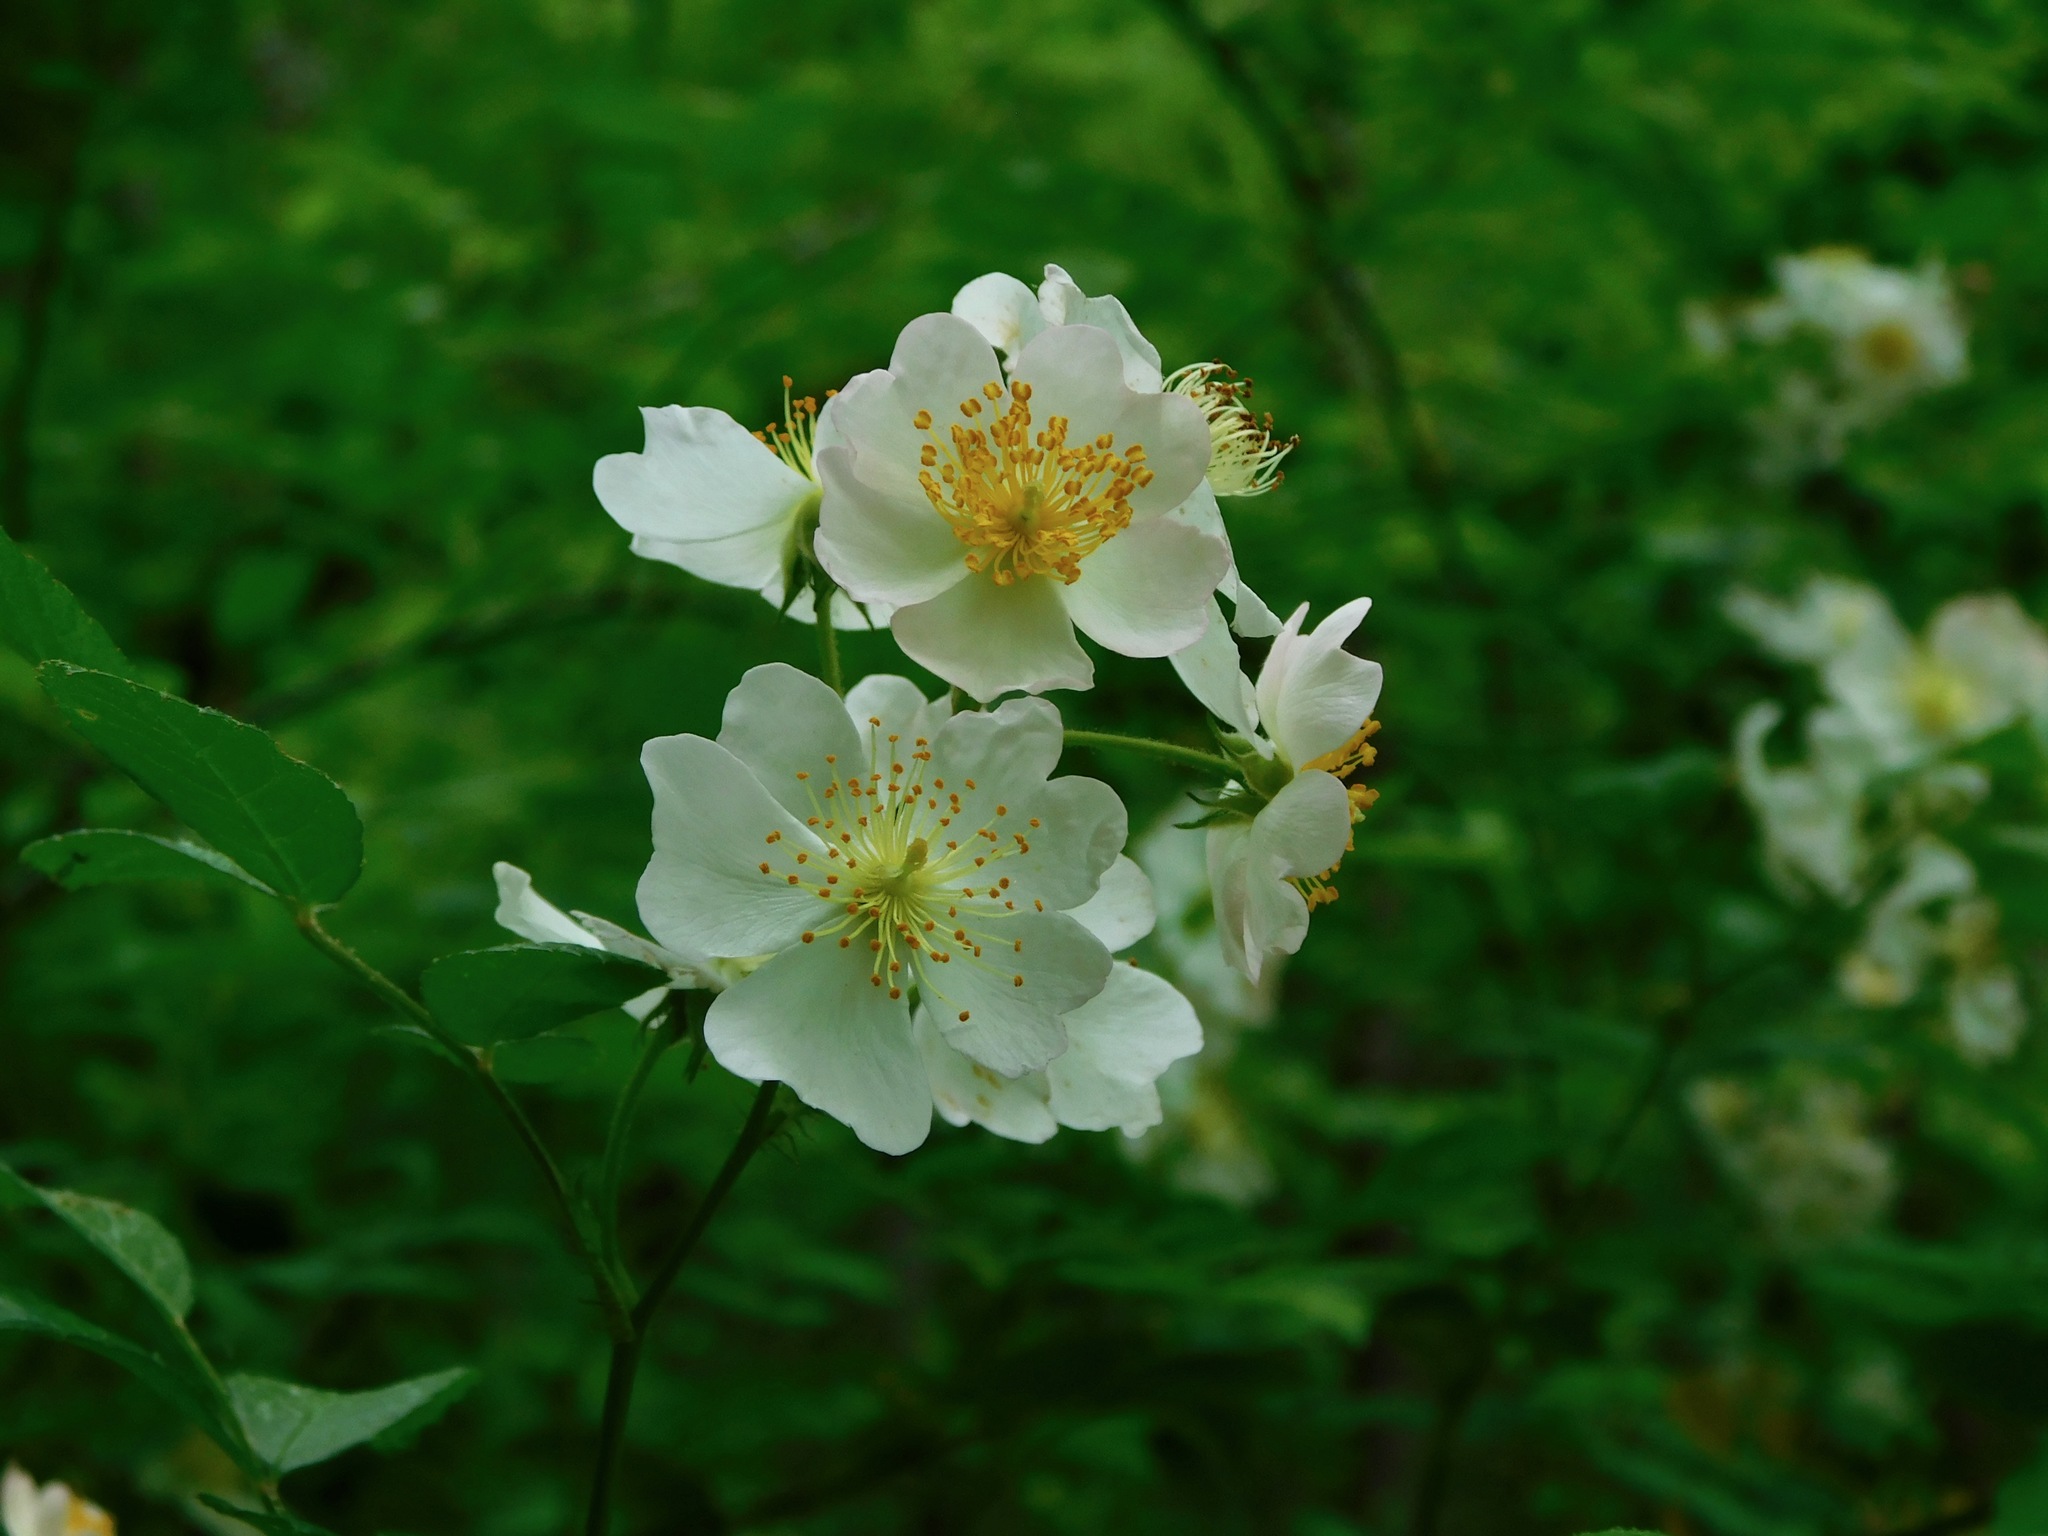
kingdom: Plantae
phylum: Tracheophyta
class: Magnoliopsida
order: Rosales
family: Rosaceae
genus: Rosa
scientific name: Rosa multiflora
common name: Multiflora rose
